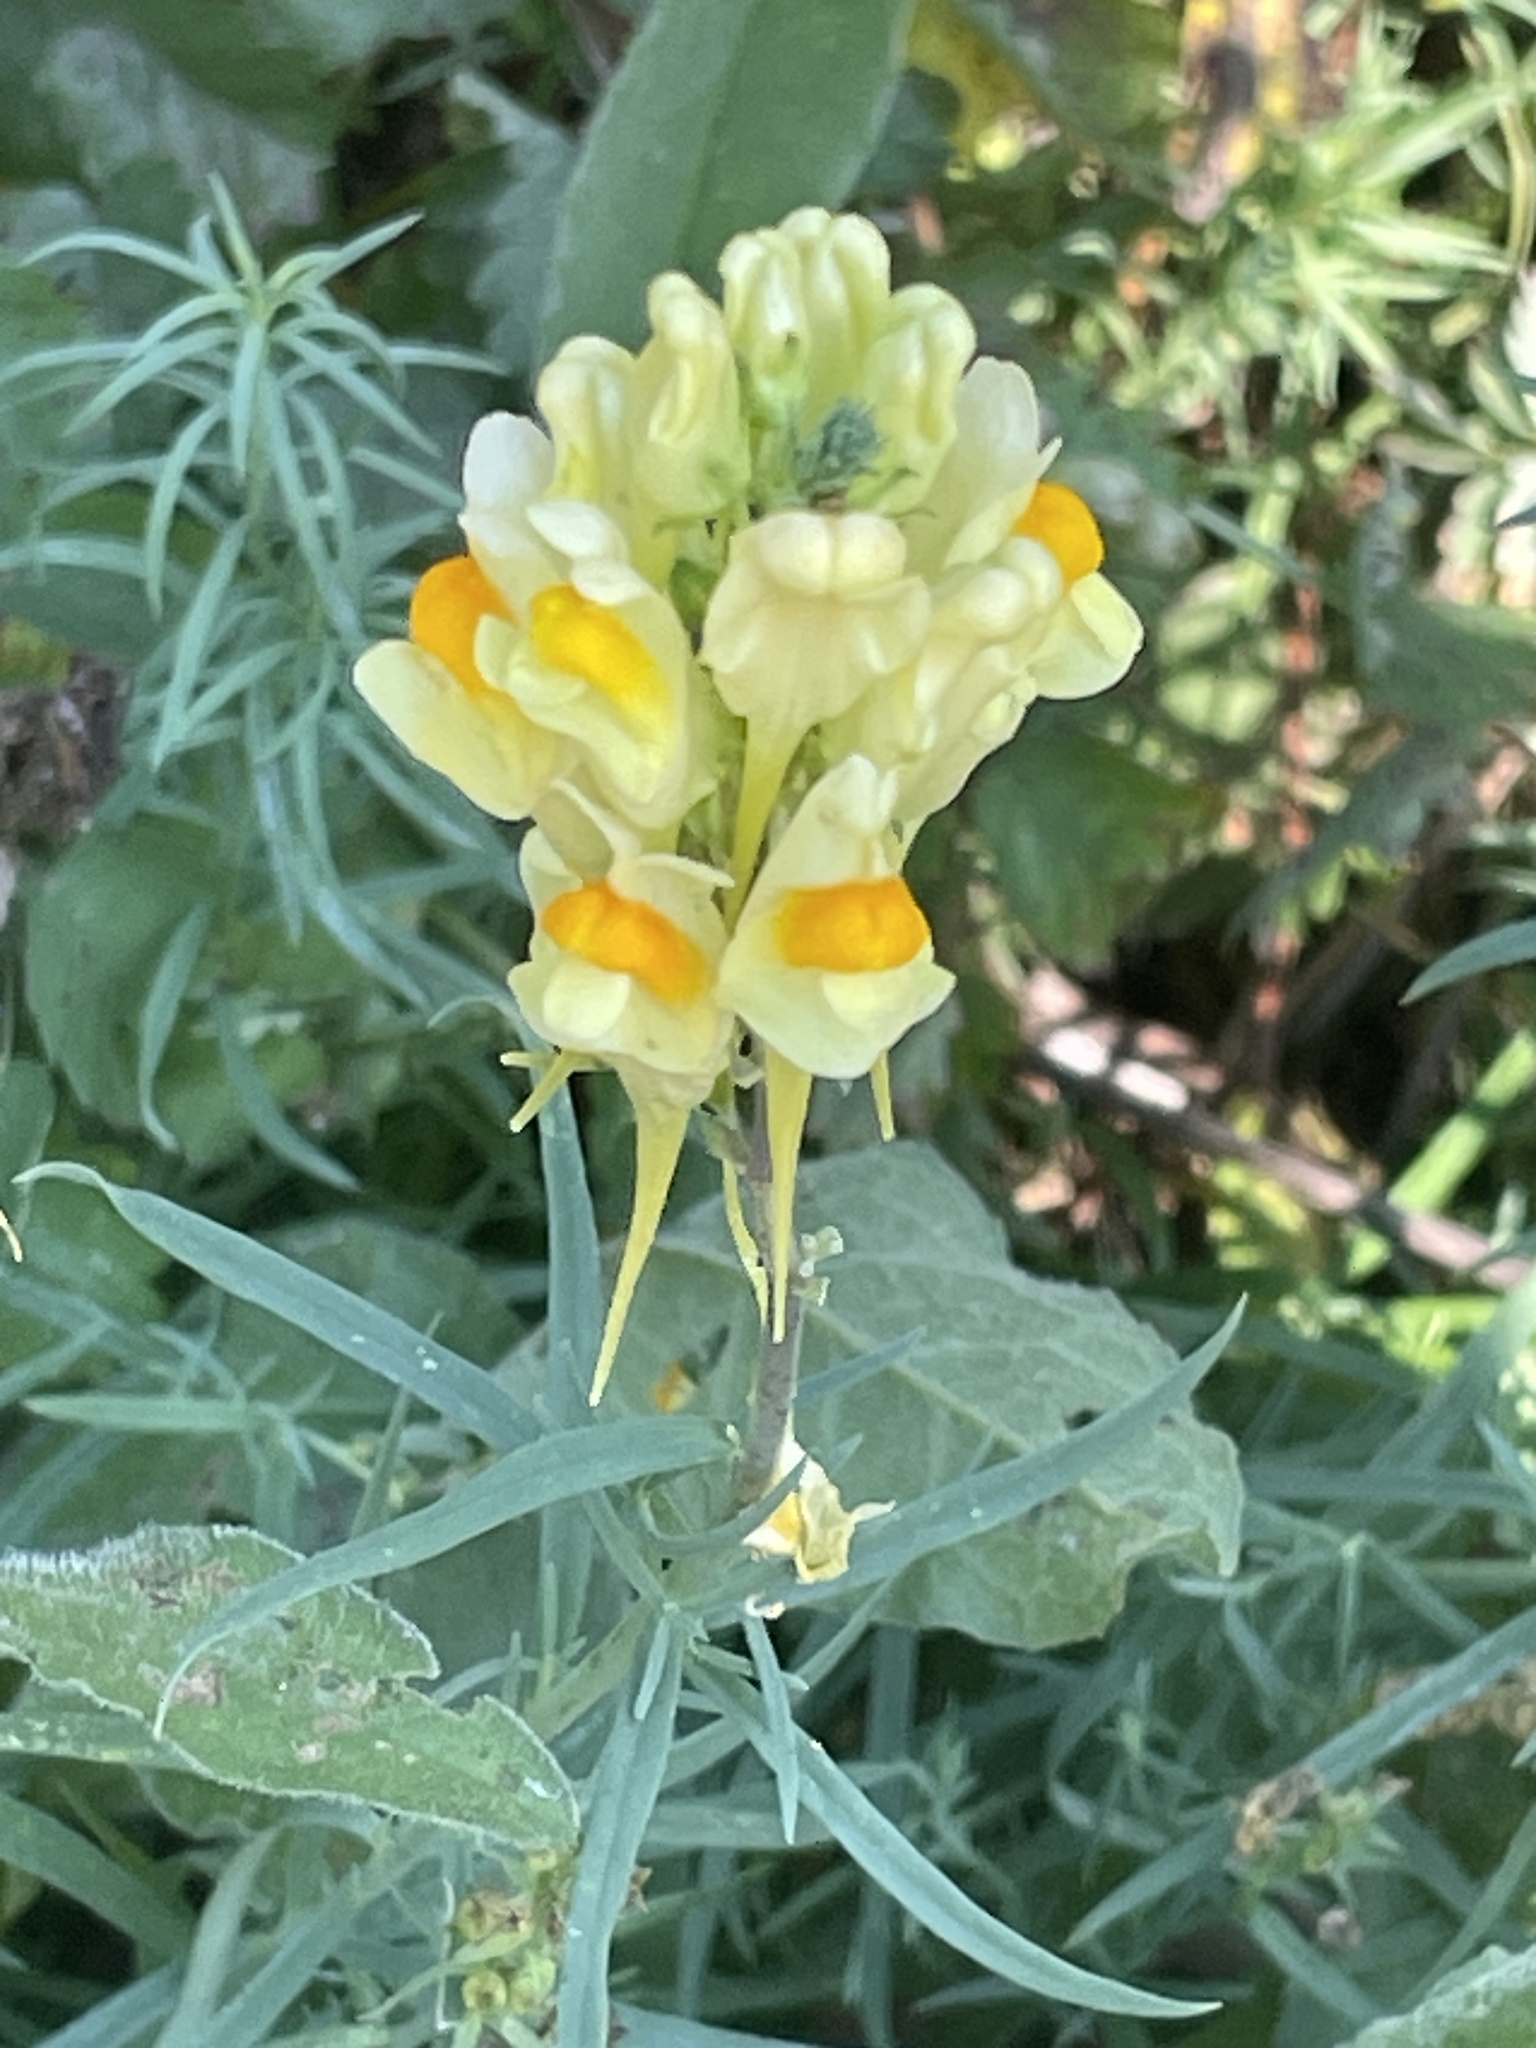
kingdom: Plantae
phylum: Tracheophyta
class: Magnoliopsida
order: Lamiales
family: Plantaginaceae
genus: Linaria
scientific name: Linaria vulgaris
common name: Butter and eggs
